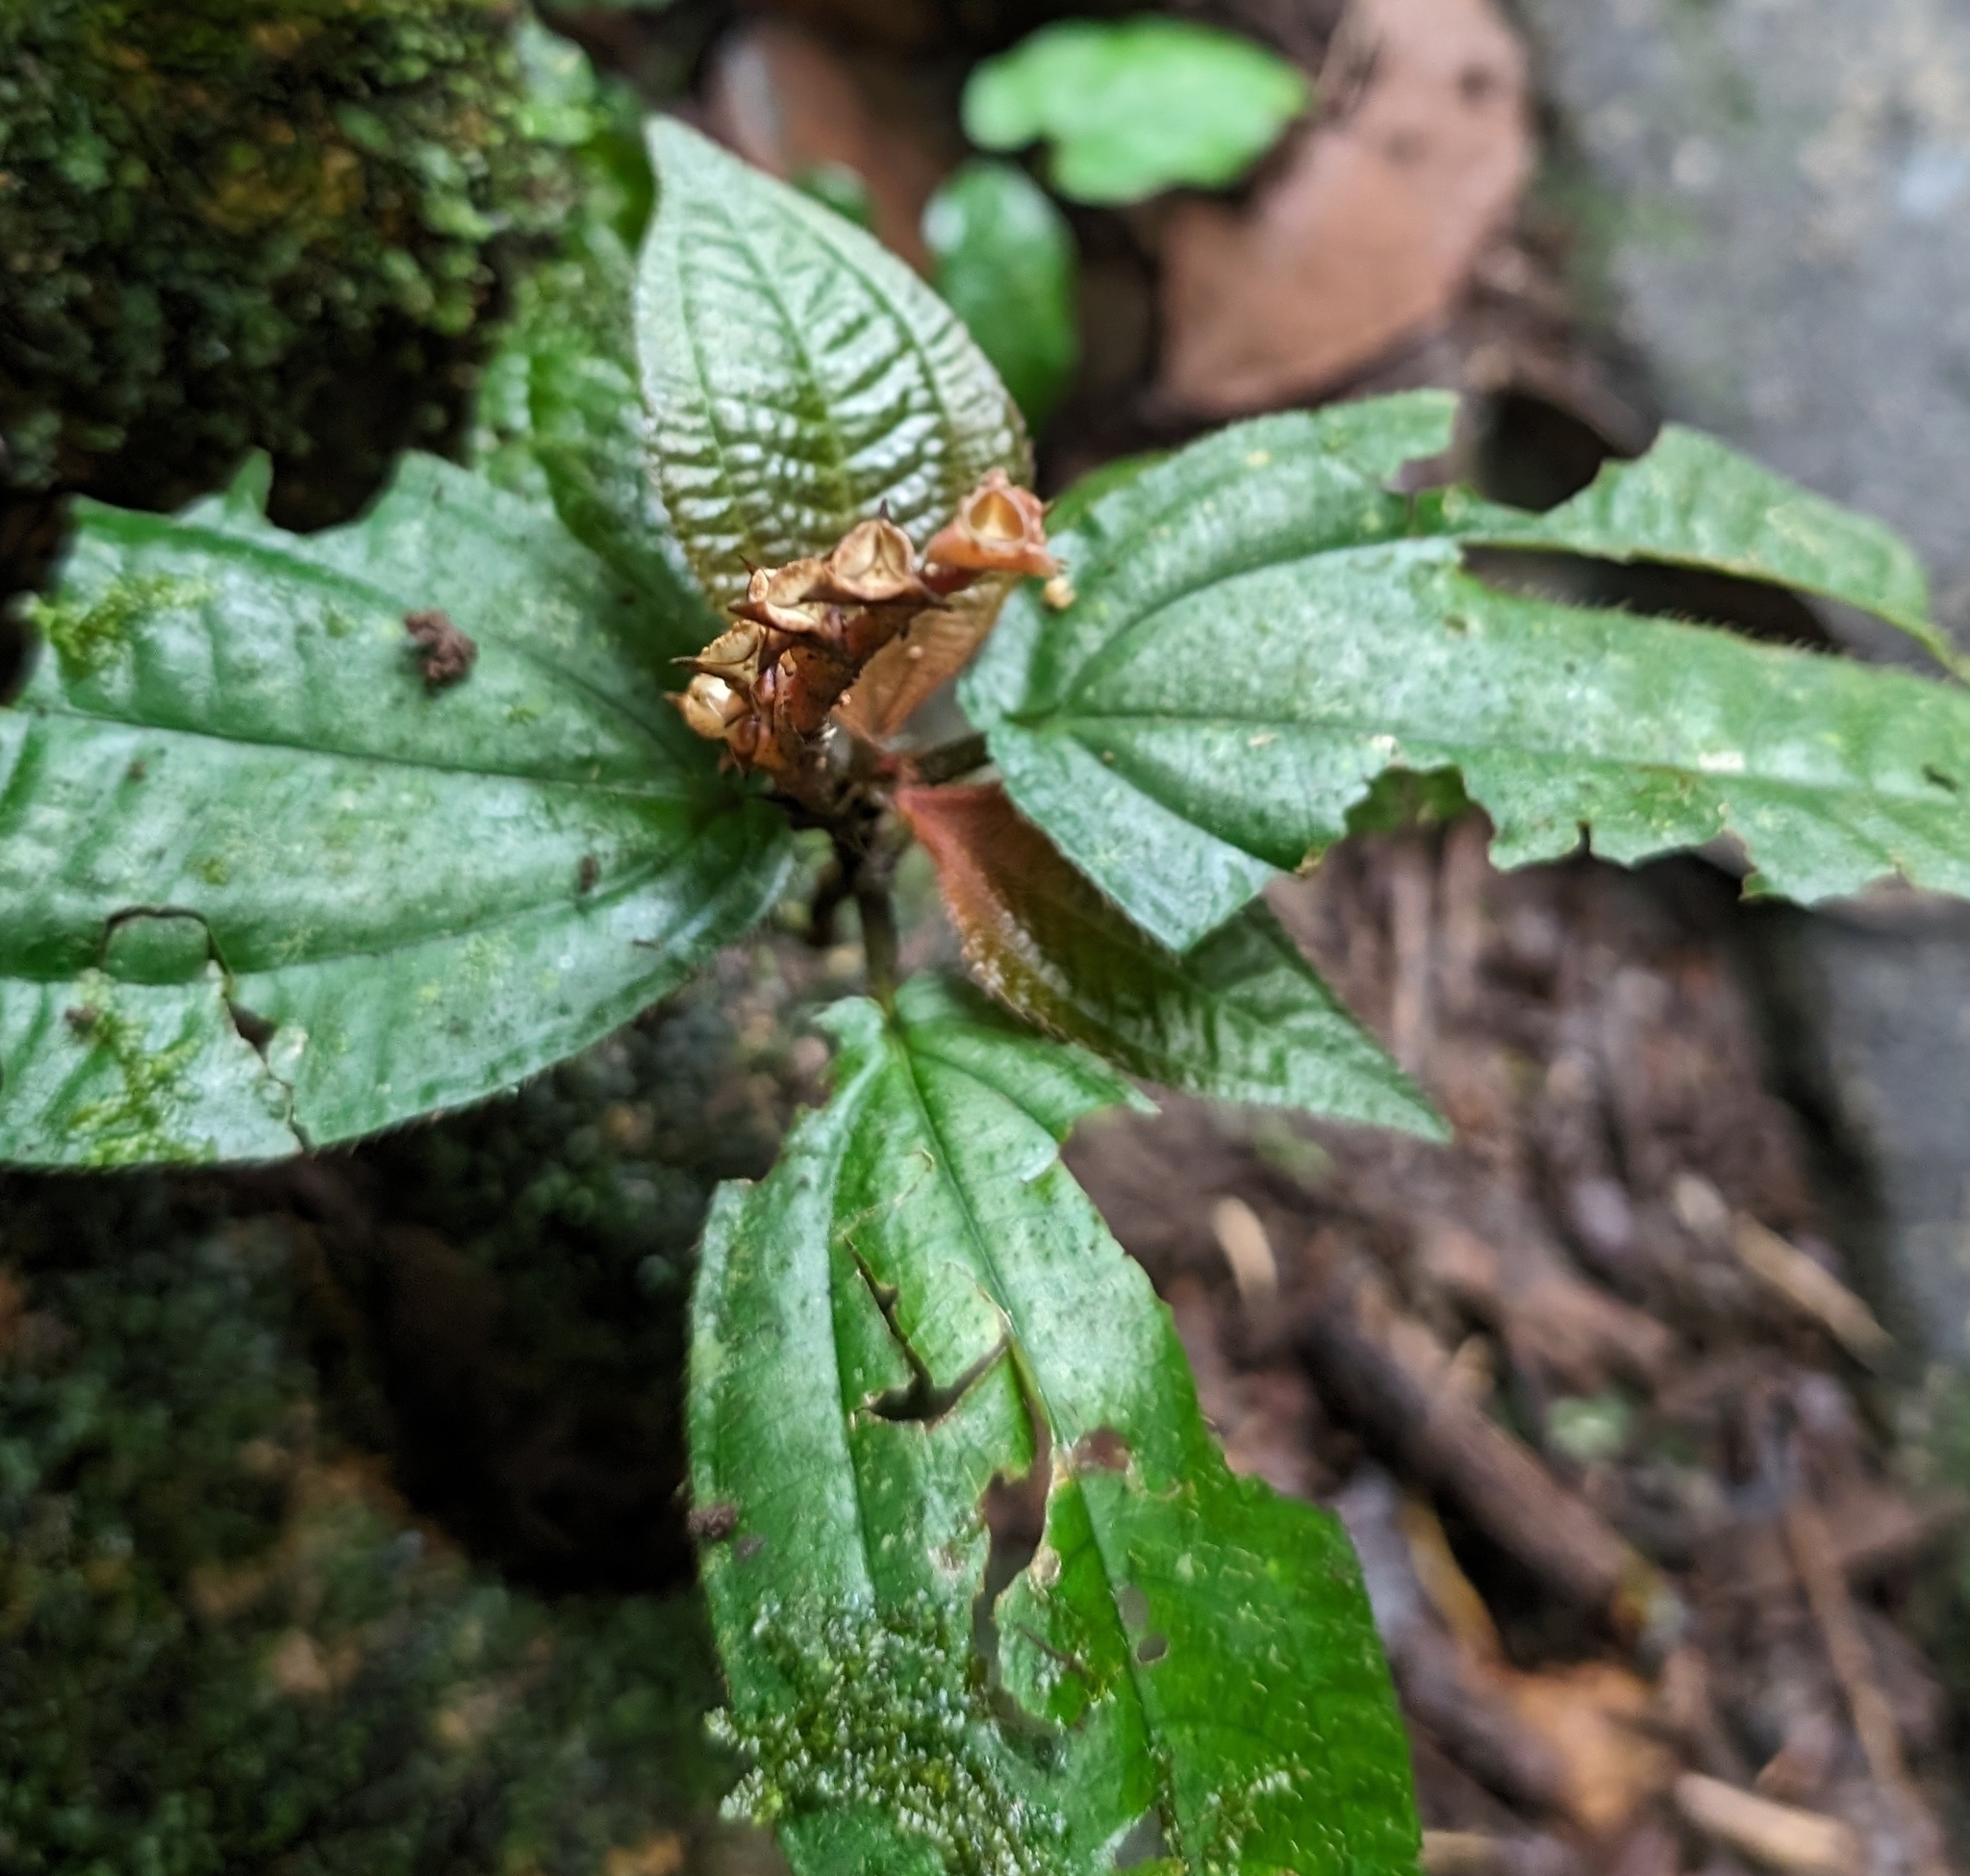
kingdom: Plantae
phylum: Tracheophyta
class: Magnoliopsida
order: Myrtales
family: Melastomataceae
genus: Triolena
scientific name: Triolena hirsuta
